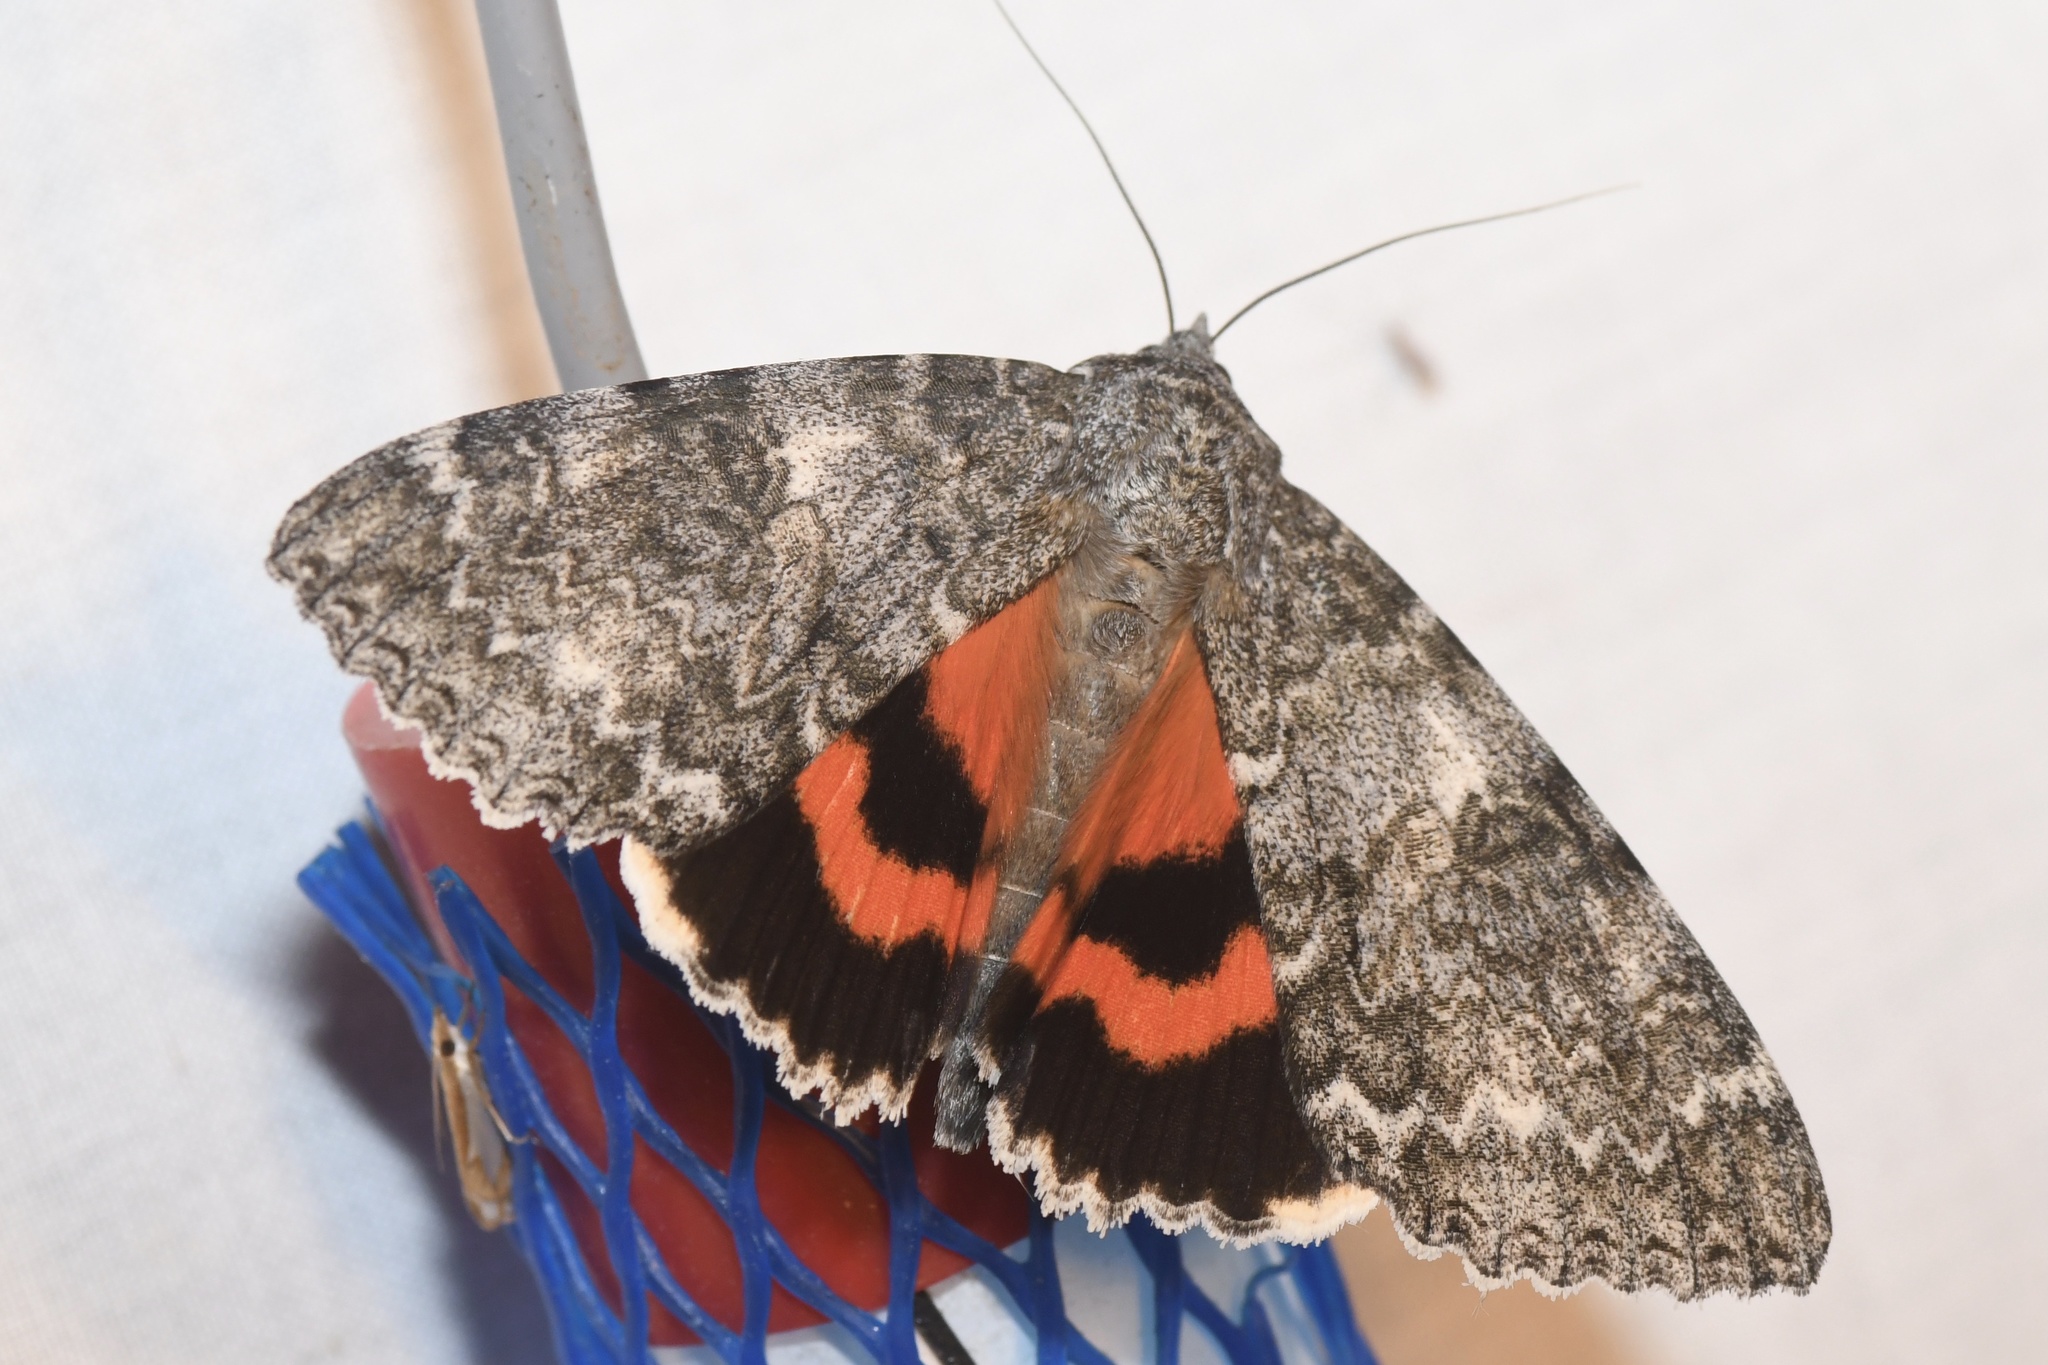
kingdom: Animalia
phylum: Arthropoda
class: Insecta
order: Lepidoptera
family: Erebidae
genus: Catocala
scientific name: Catocala unijuga
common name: Once-married underwing
